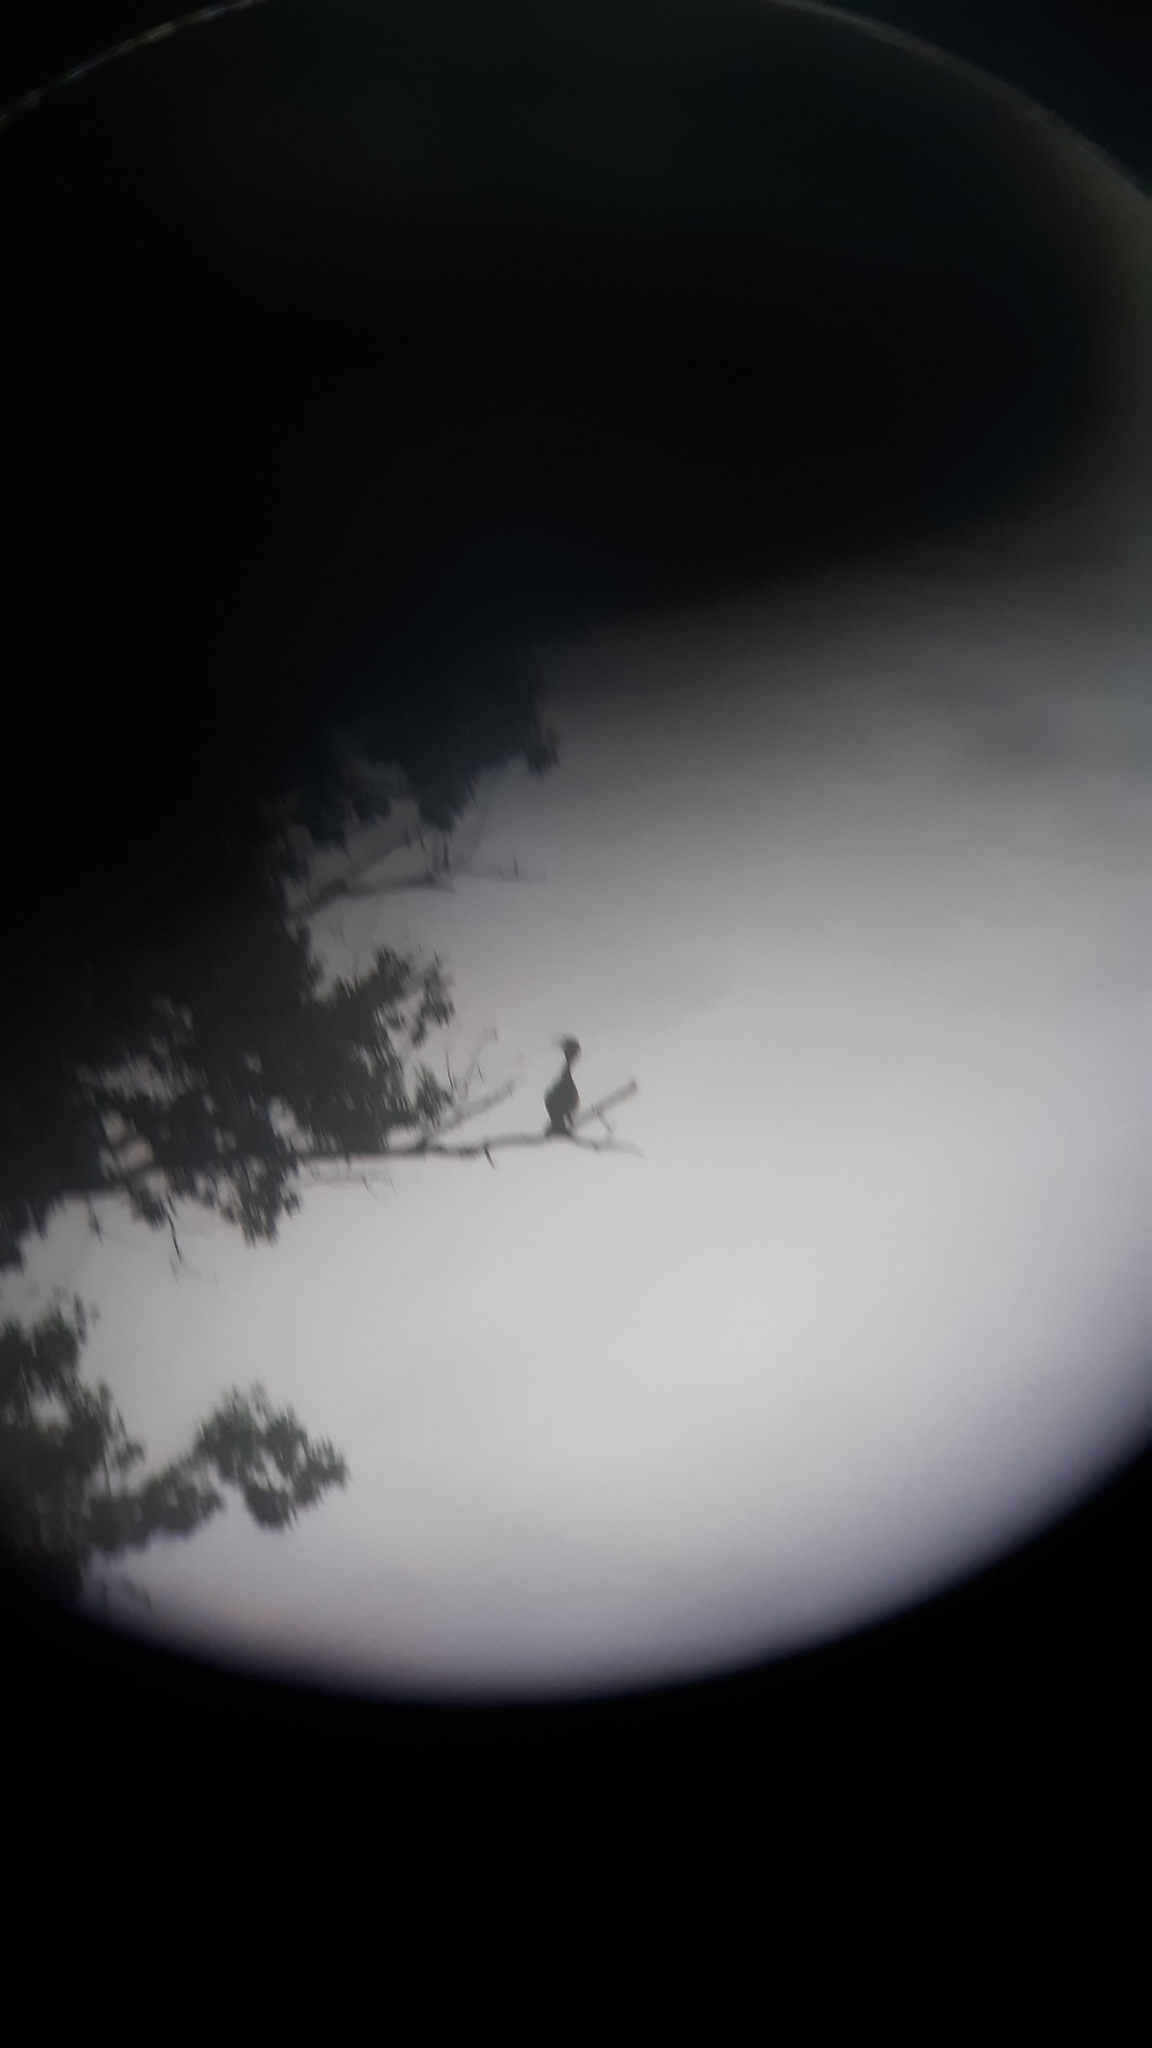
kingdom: Animalia
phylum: Chordata
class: Aves
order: Suliformes
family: Phalacrocoracidae
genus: Phalacrocorax
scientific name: Phalacrocorax auritus
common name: Double-crested cormorant
